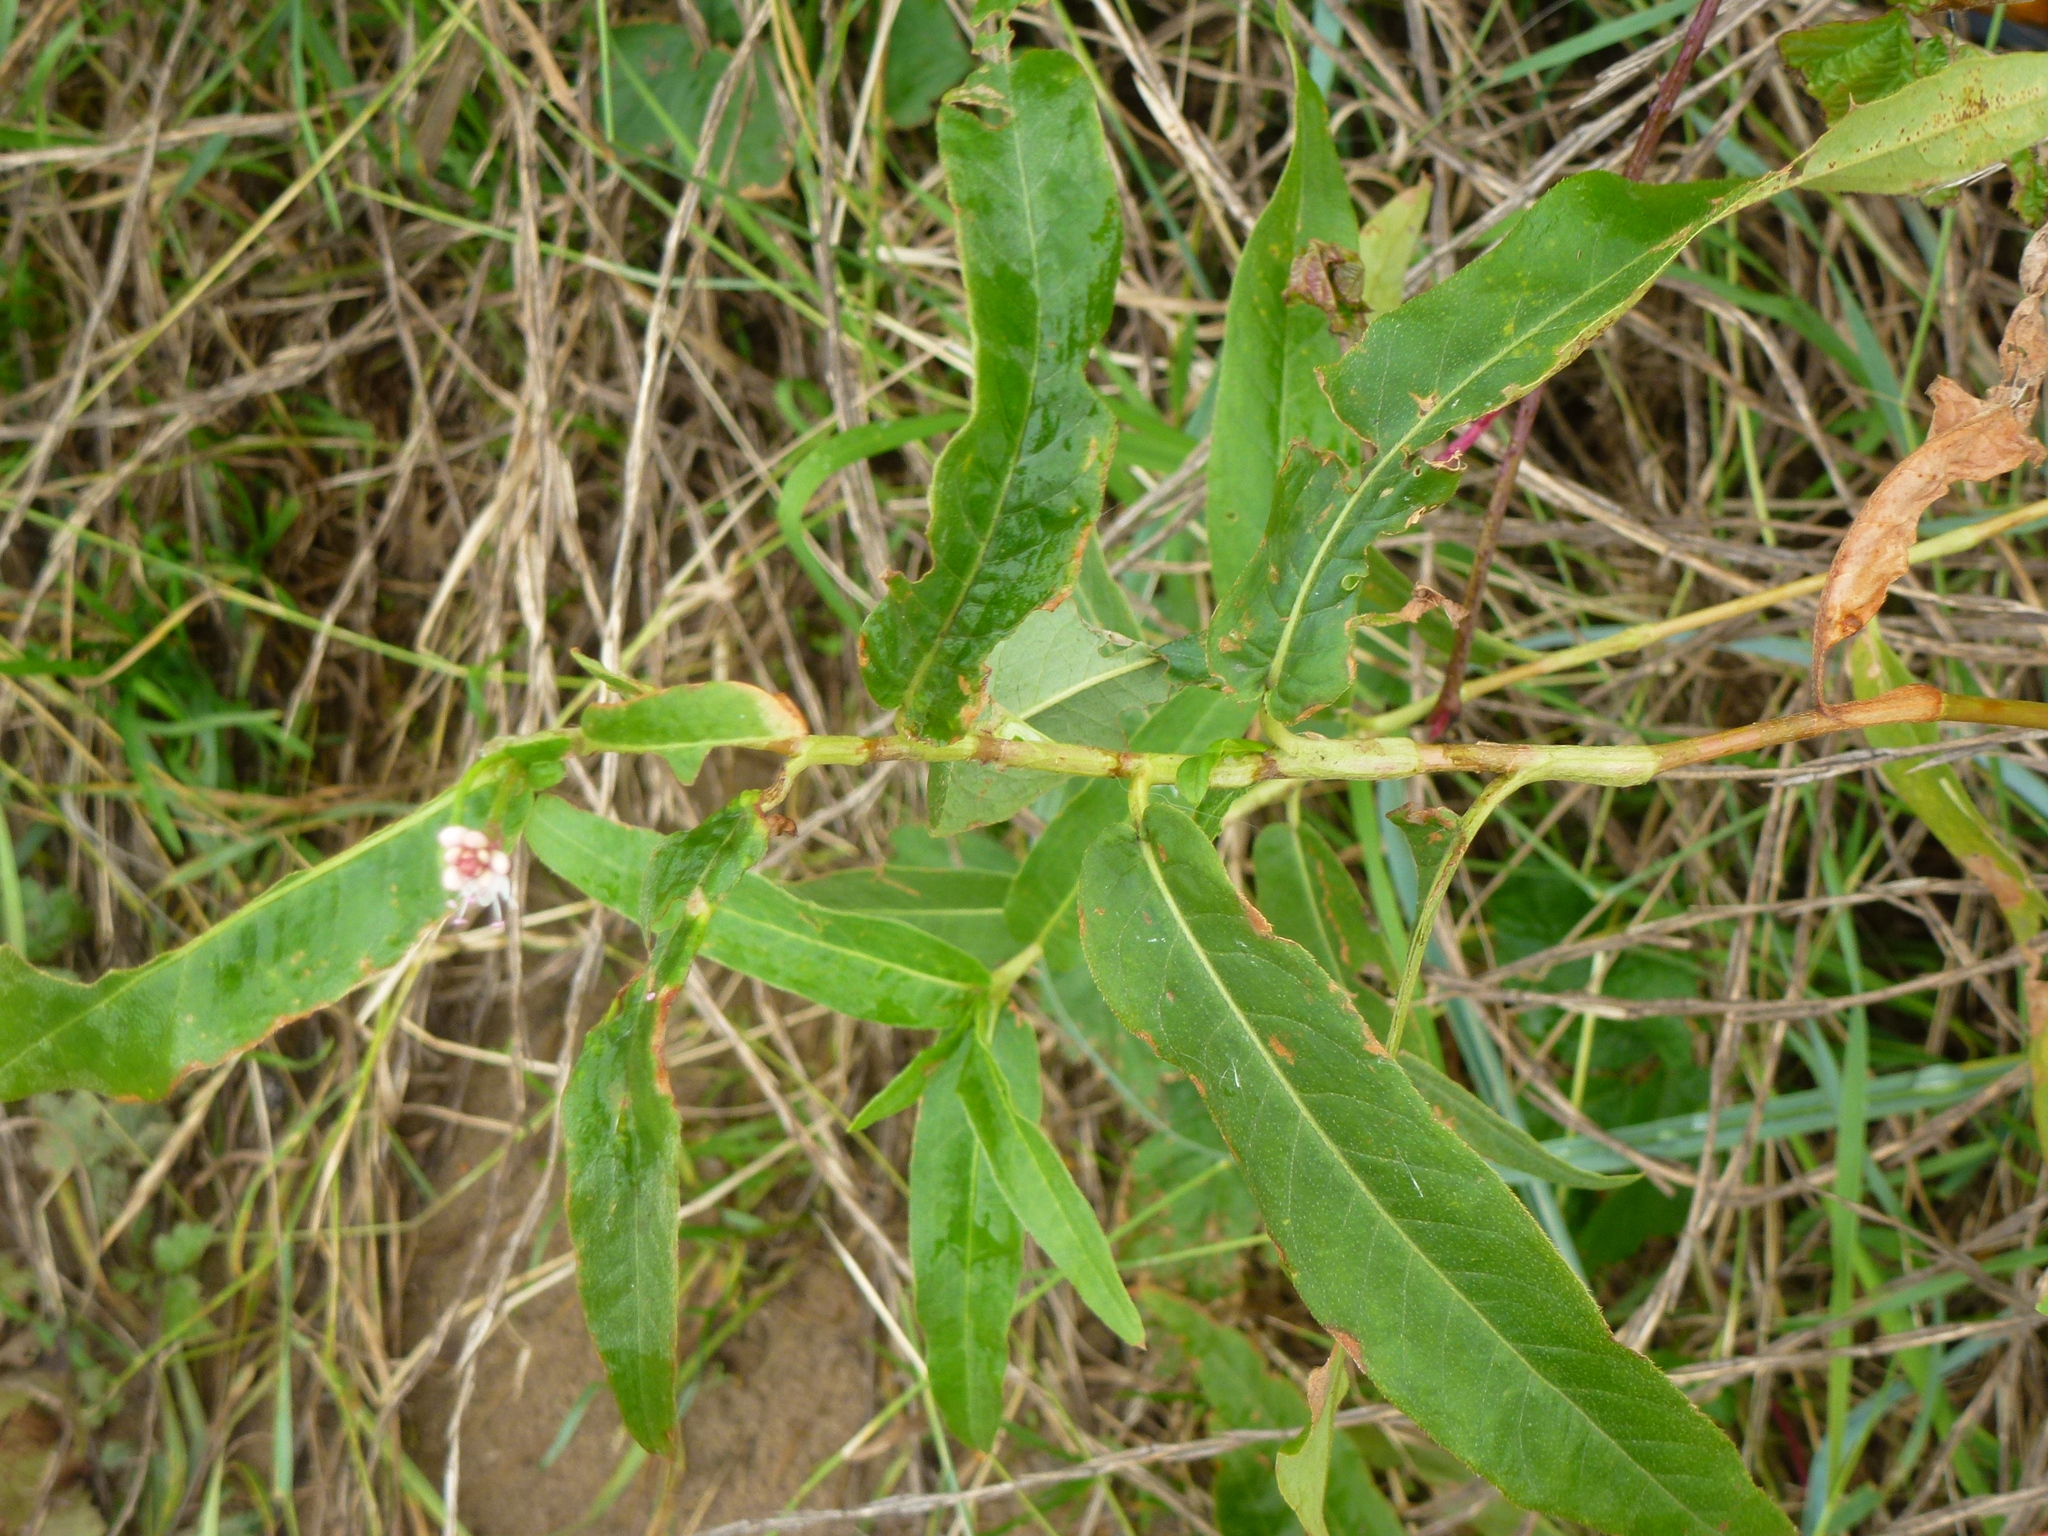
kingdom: Plantae
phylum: Tracheophyta
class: Magnoliopsida
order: Caryophyllales
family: Polygonaceae
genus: Persicaria
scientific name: Persicaria amphibia
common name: Amphibious bistort
